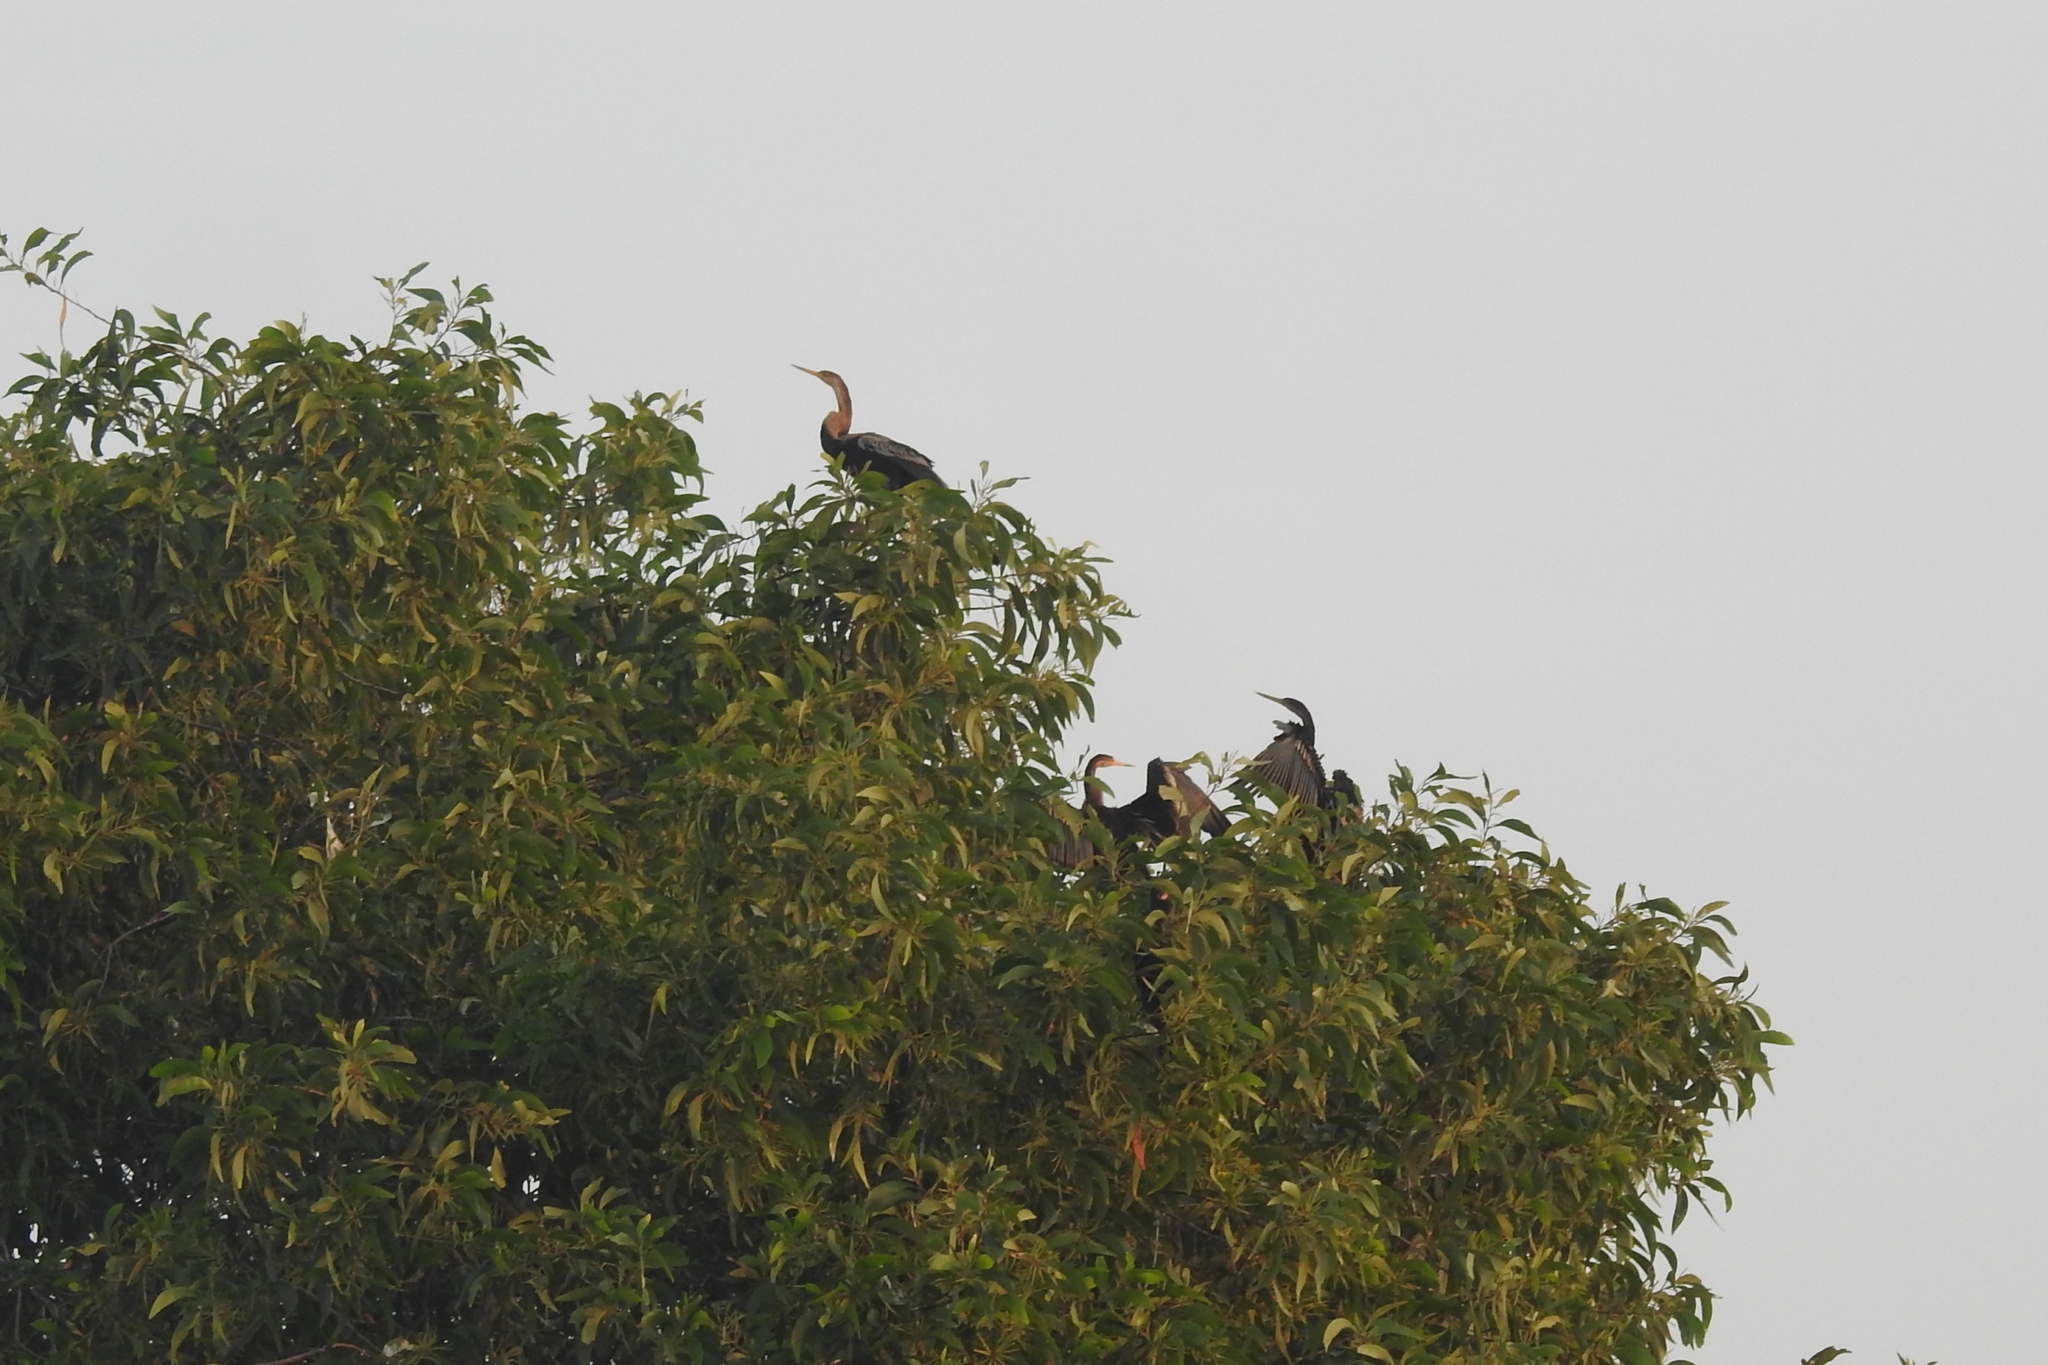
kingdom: Animalia
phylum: Chordata
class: Aves
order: Suliformes
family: Anhingidae
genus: Anhinga
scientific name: Anhinga melanogaster
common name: Oriental darter
